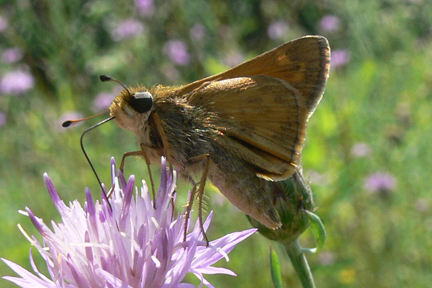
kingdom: Animalia
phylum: Arthropoda
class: Insecta
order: Lepidoptera
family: Hesperiidae
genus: Atalopedes
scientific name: Atalopedes
